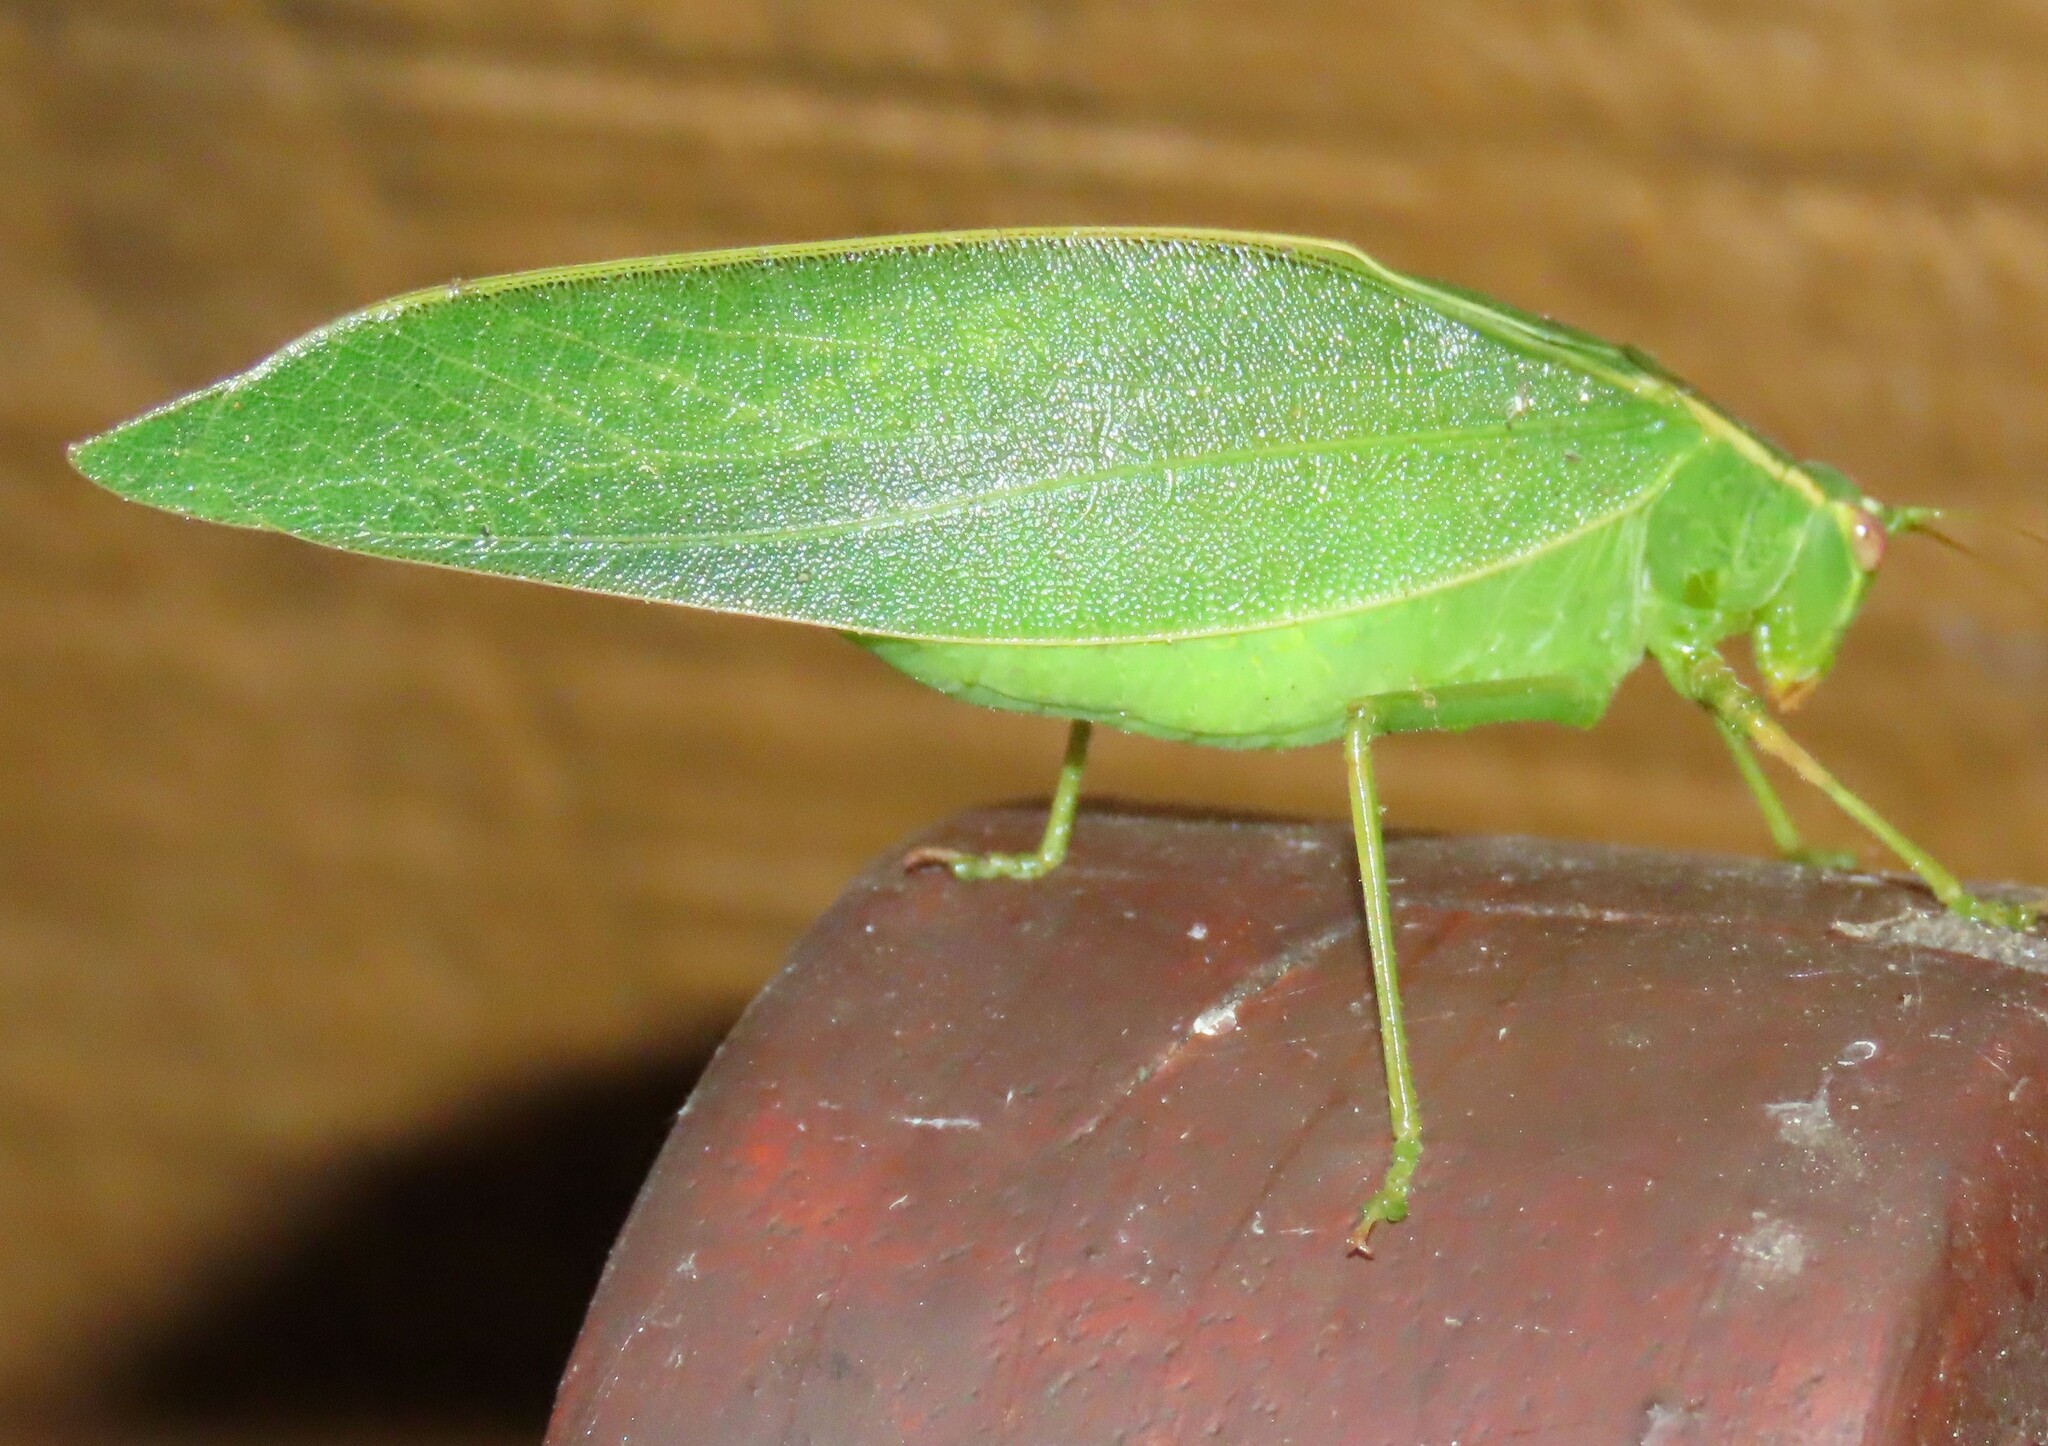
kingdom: Animalia
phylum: Arthropoda
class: Insecta
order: Orthoptera
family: Tettigoniidae
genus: Caedicia
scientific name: Caedicia simplex
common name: Common garden katydid
